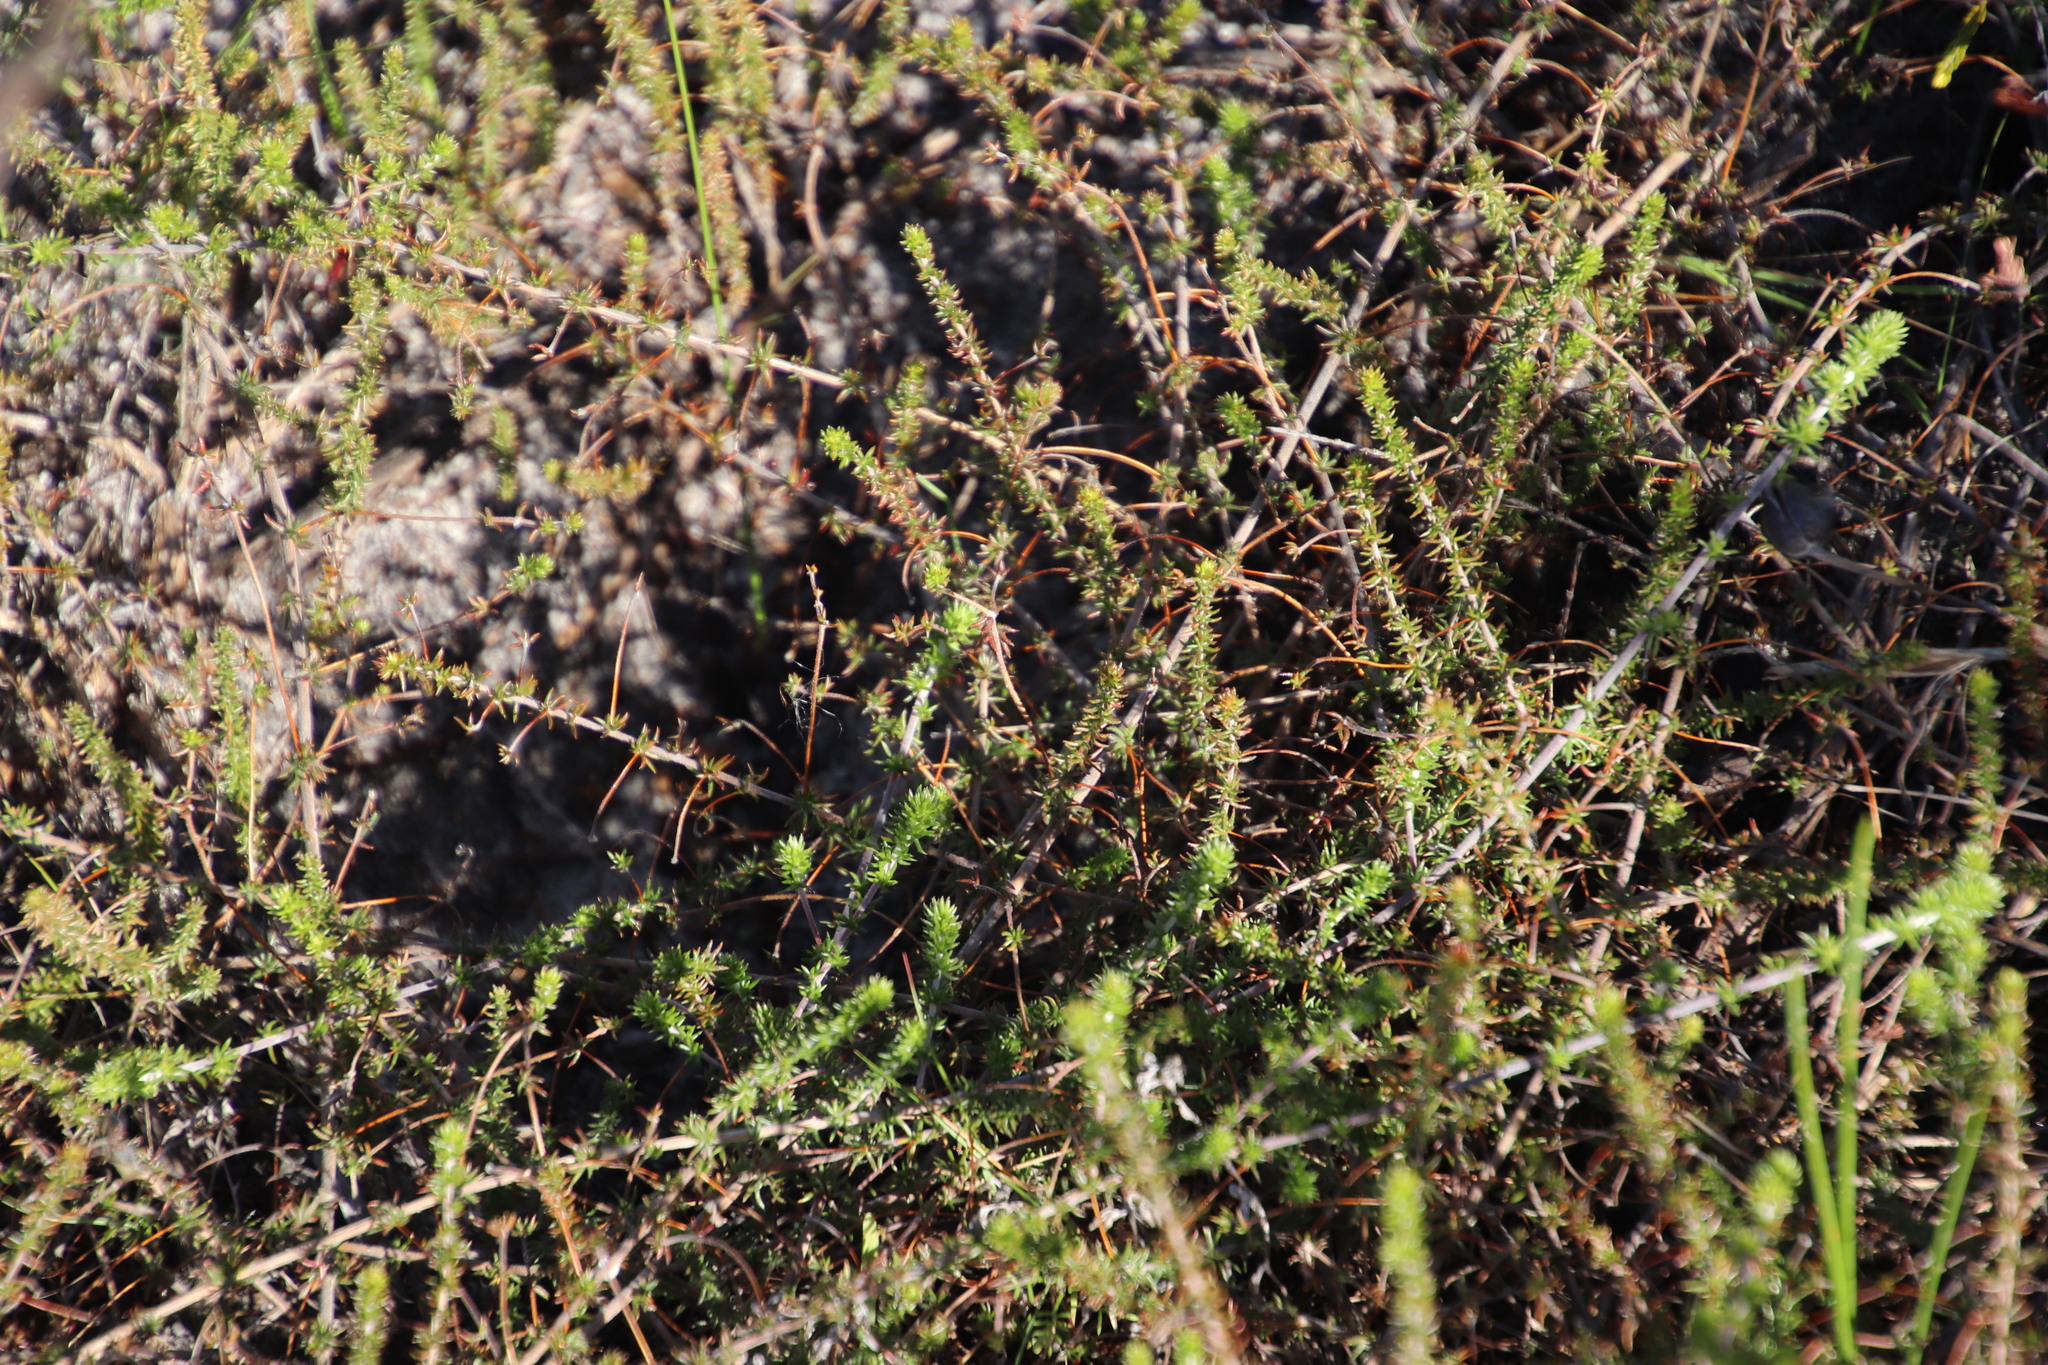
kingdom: Plantae
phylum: Tracheophyta
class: Magnoliopsida
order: Fabales
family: Fabaceae
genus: Aspalathus
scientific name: Aspalathus retroflexa
